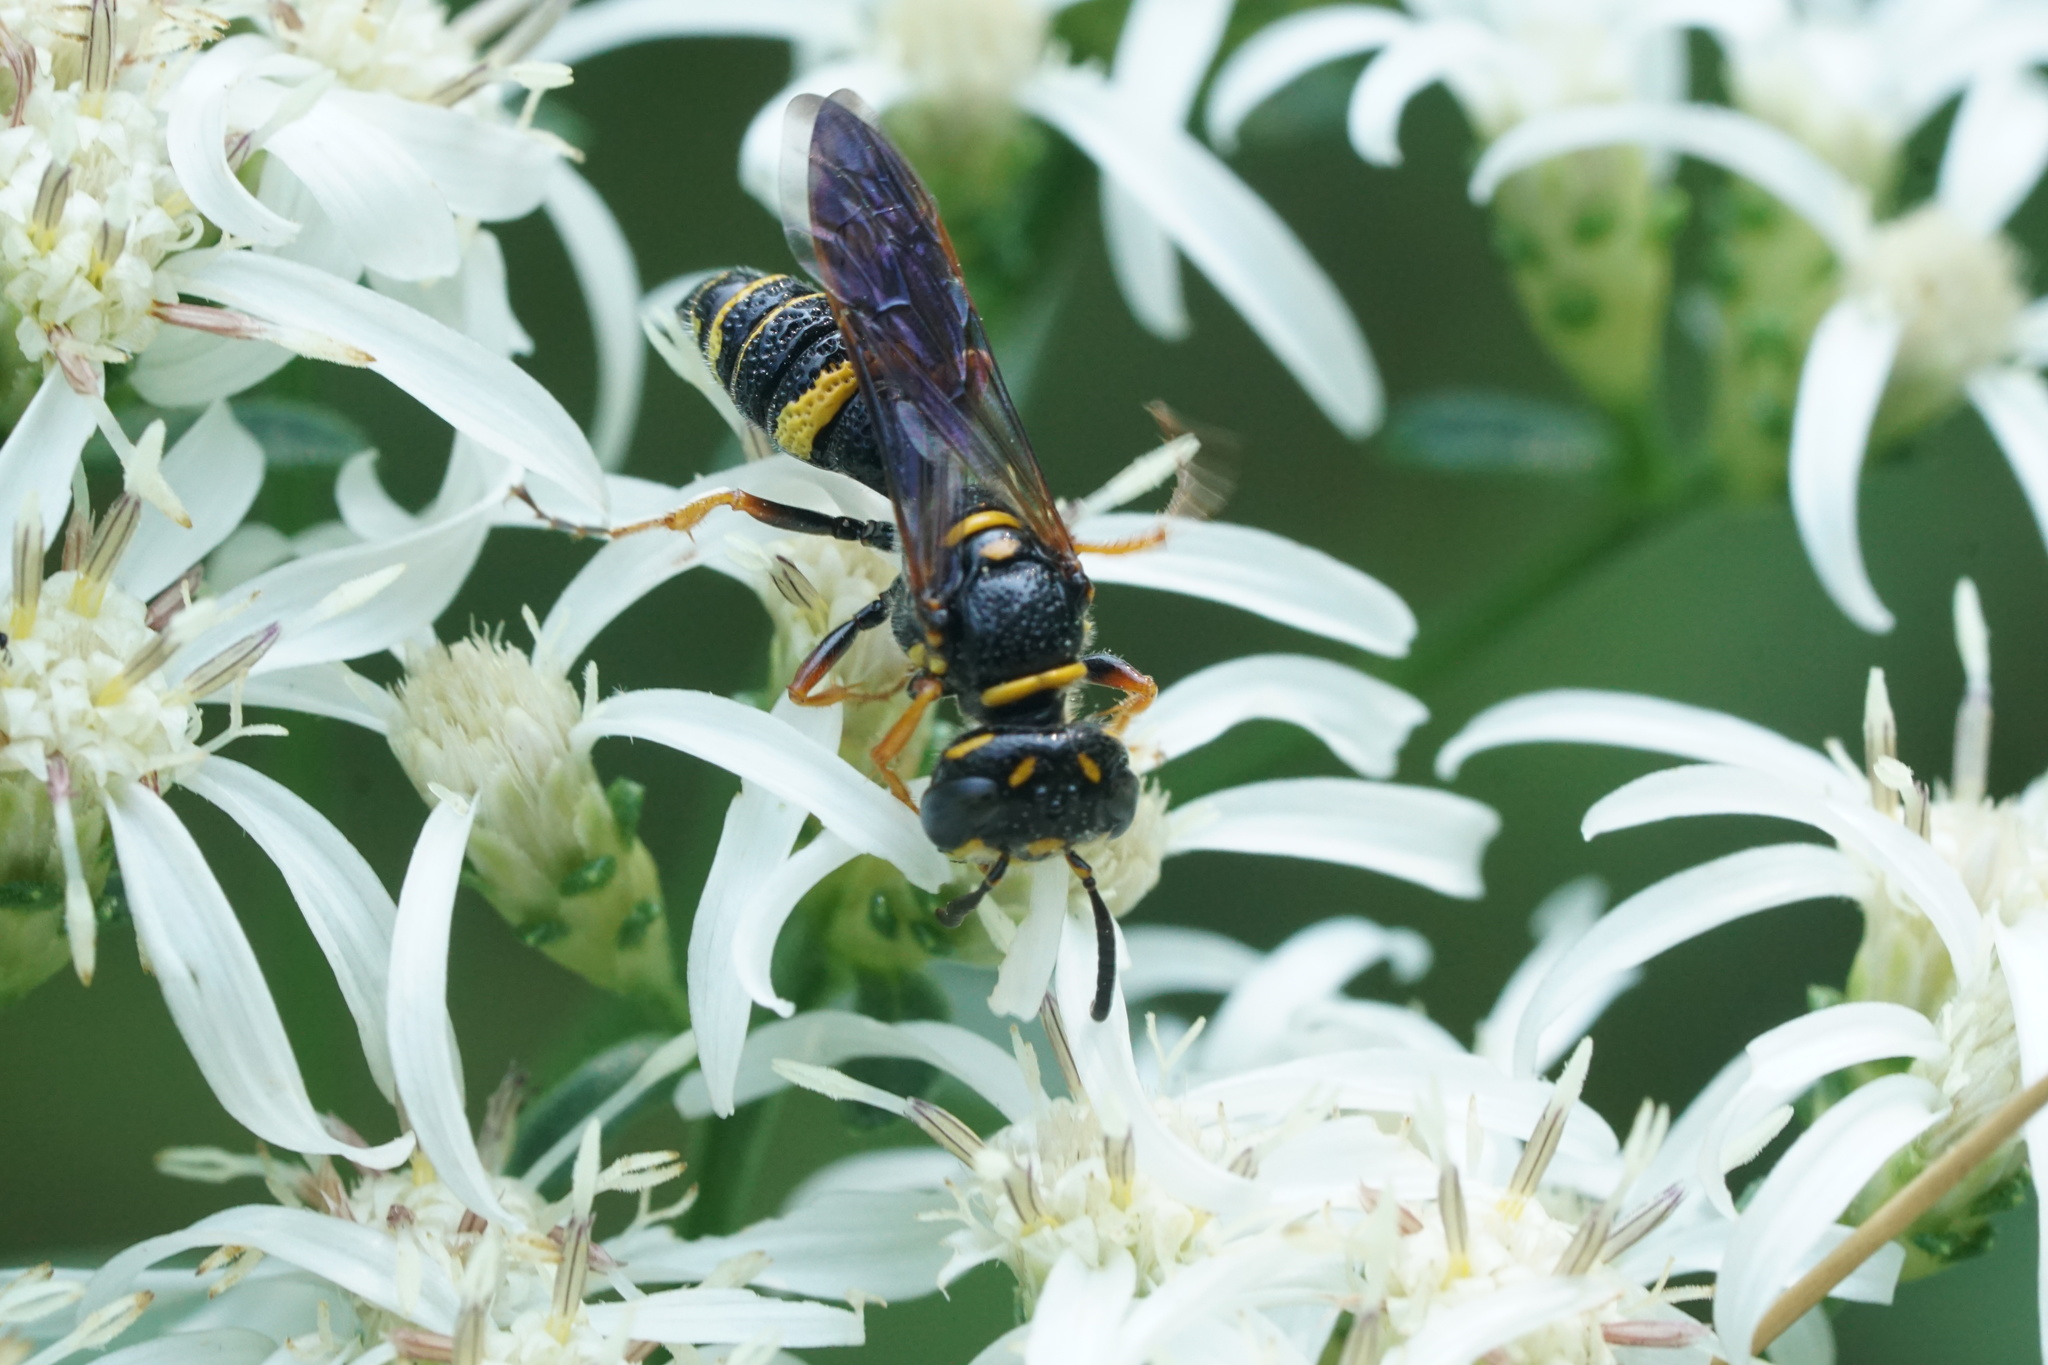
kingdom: Animalia
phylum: Arthropoda
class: Insecta
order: Hymenoptera
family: Crabronidae
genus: Philanthus
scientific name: Philanthus gibbosus
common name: Humped beewolf
